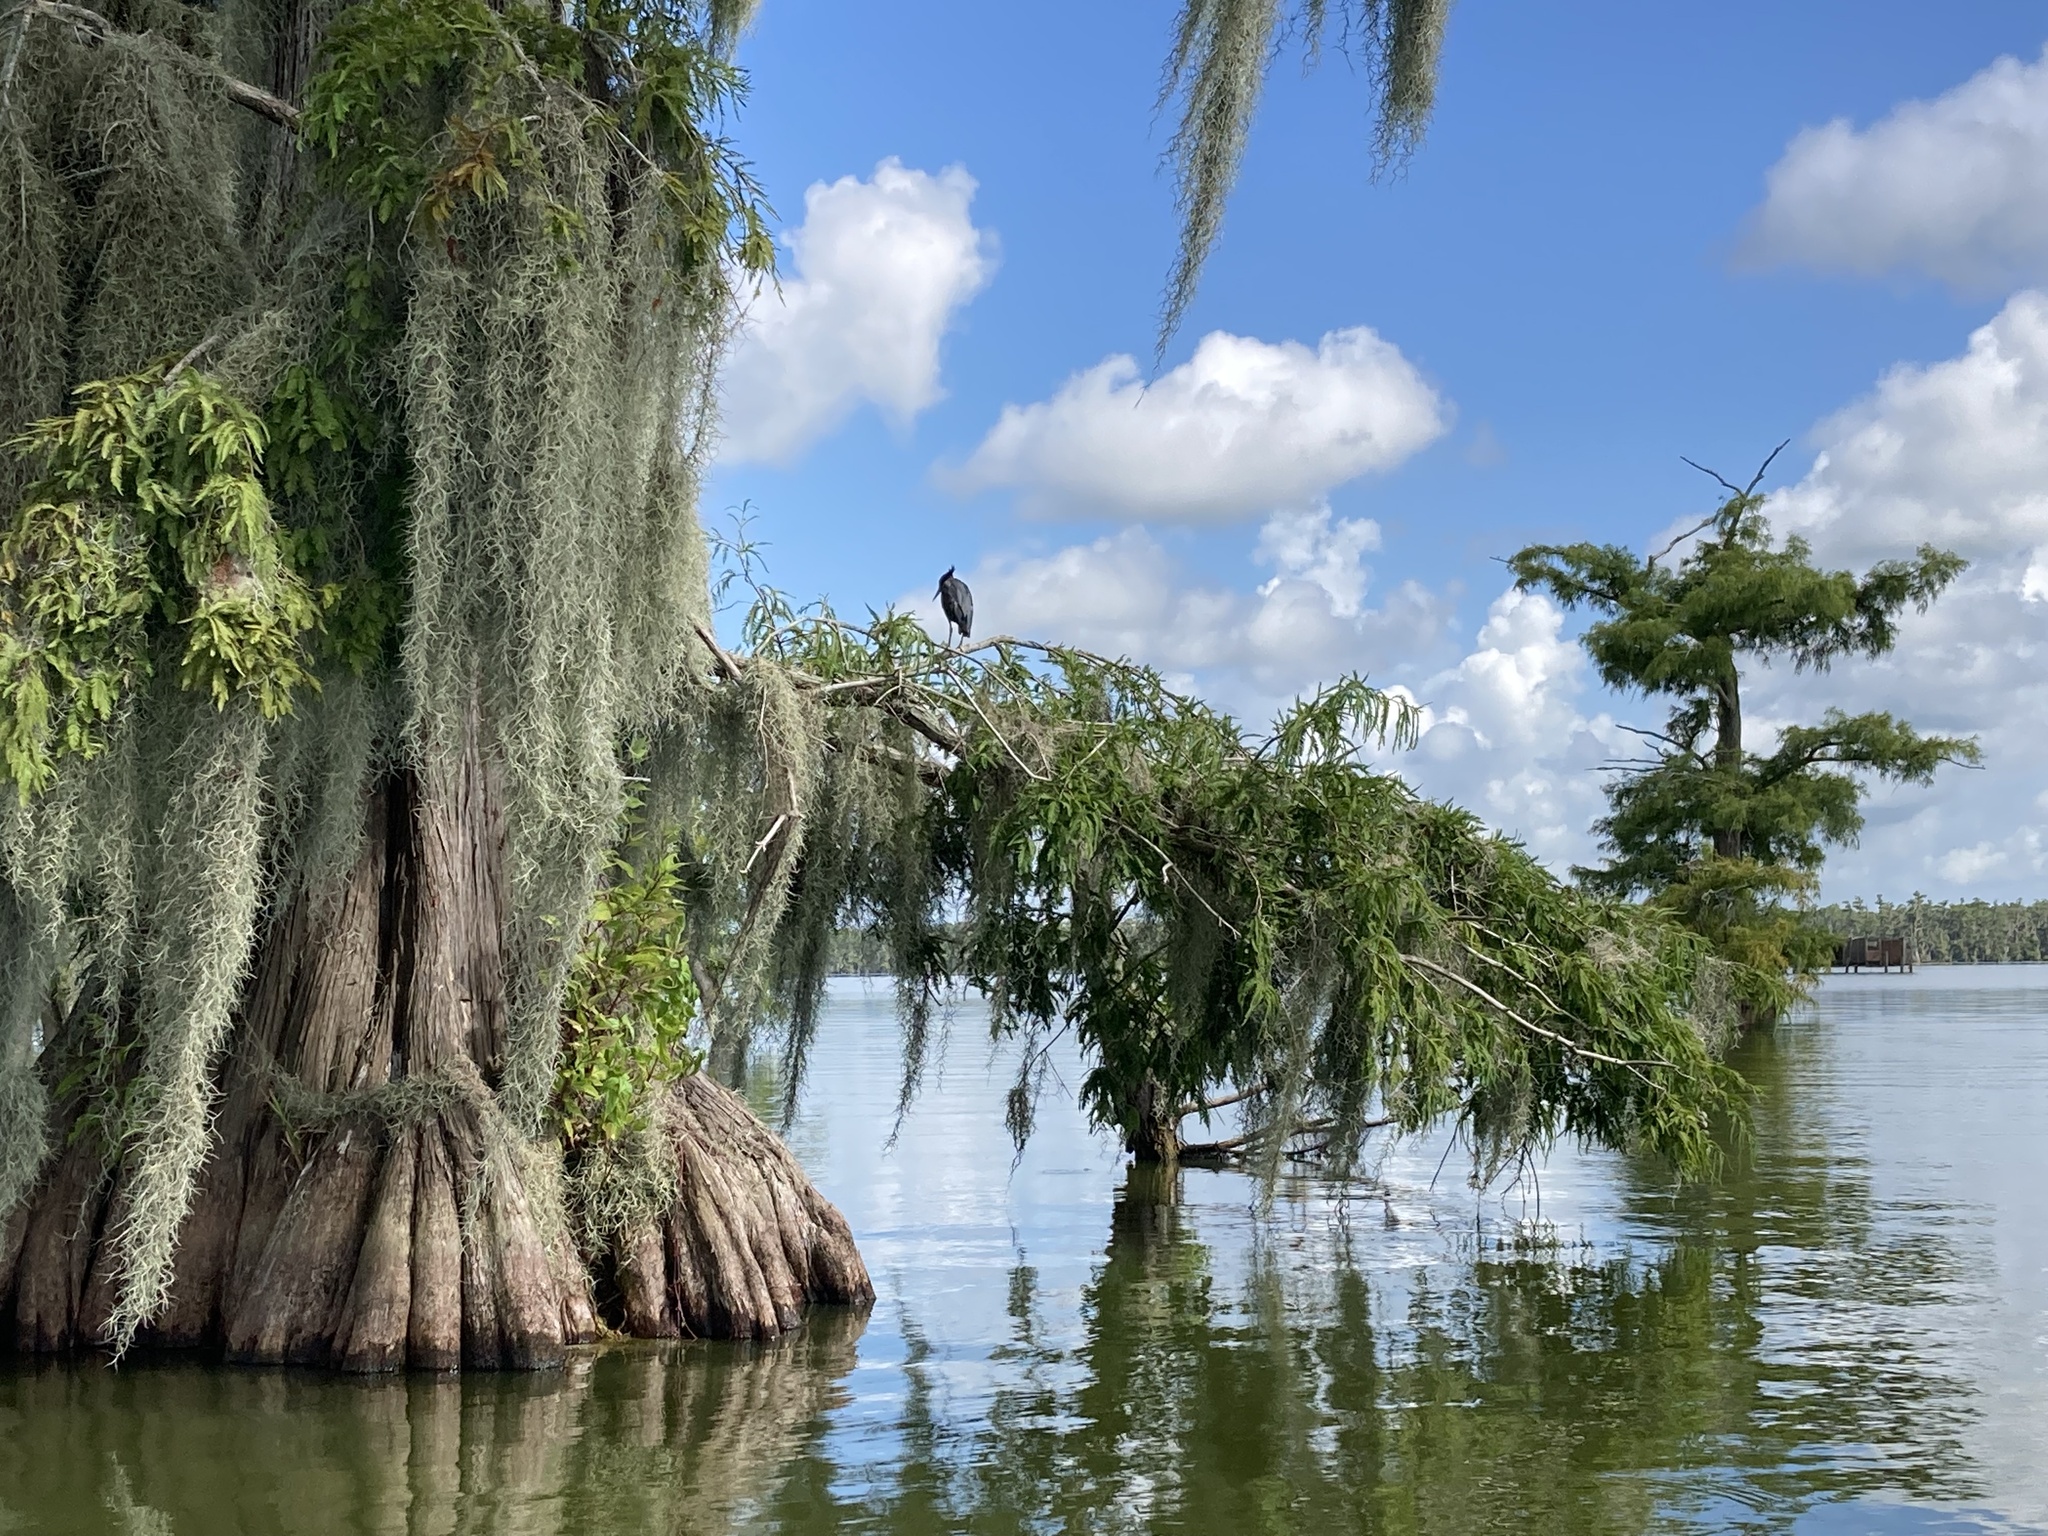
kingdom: Animalia
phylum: Chordata
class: Aves
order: Pelecaniformes
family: Ardeidae
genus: Butorides
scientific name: Butorides virescens
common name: Green heron
